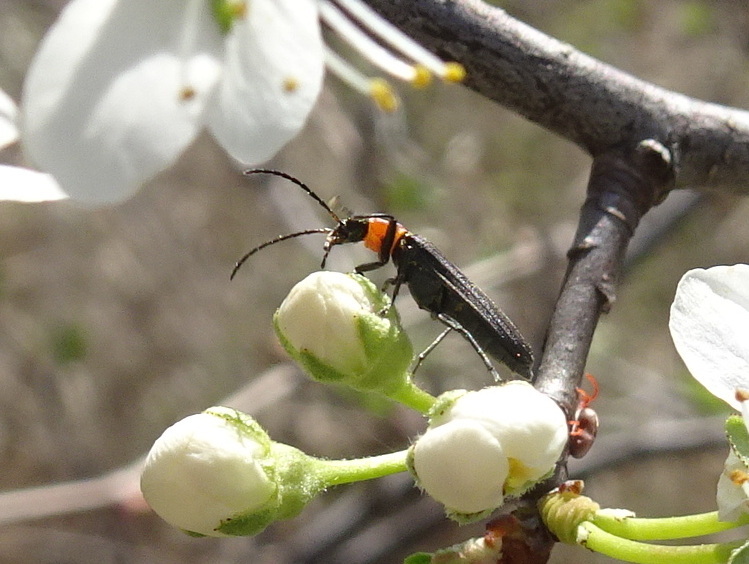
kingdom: Animalia
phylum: Arthropoda
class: Insecta
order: Coleoptera
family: Oedemeridae
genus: Ischnomera
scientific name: Ischnomera
